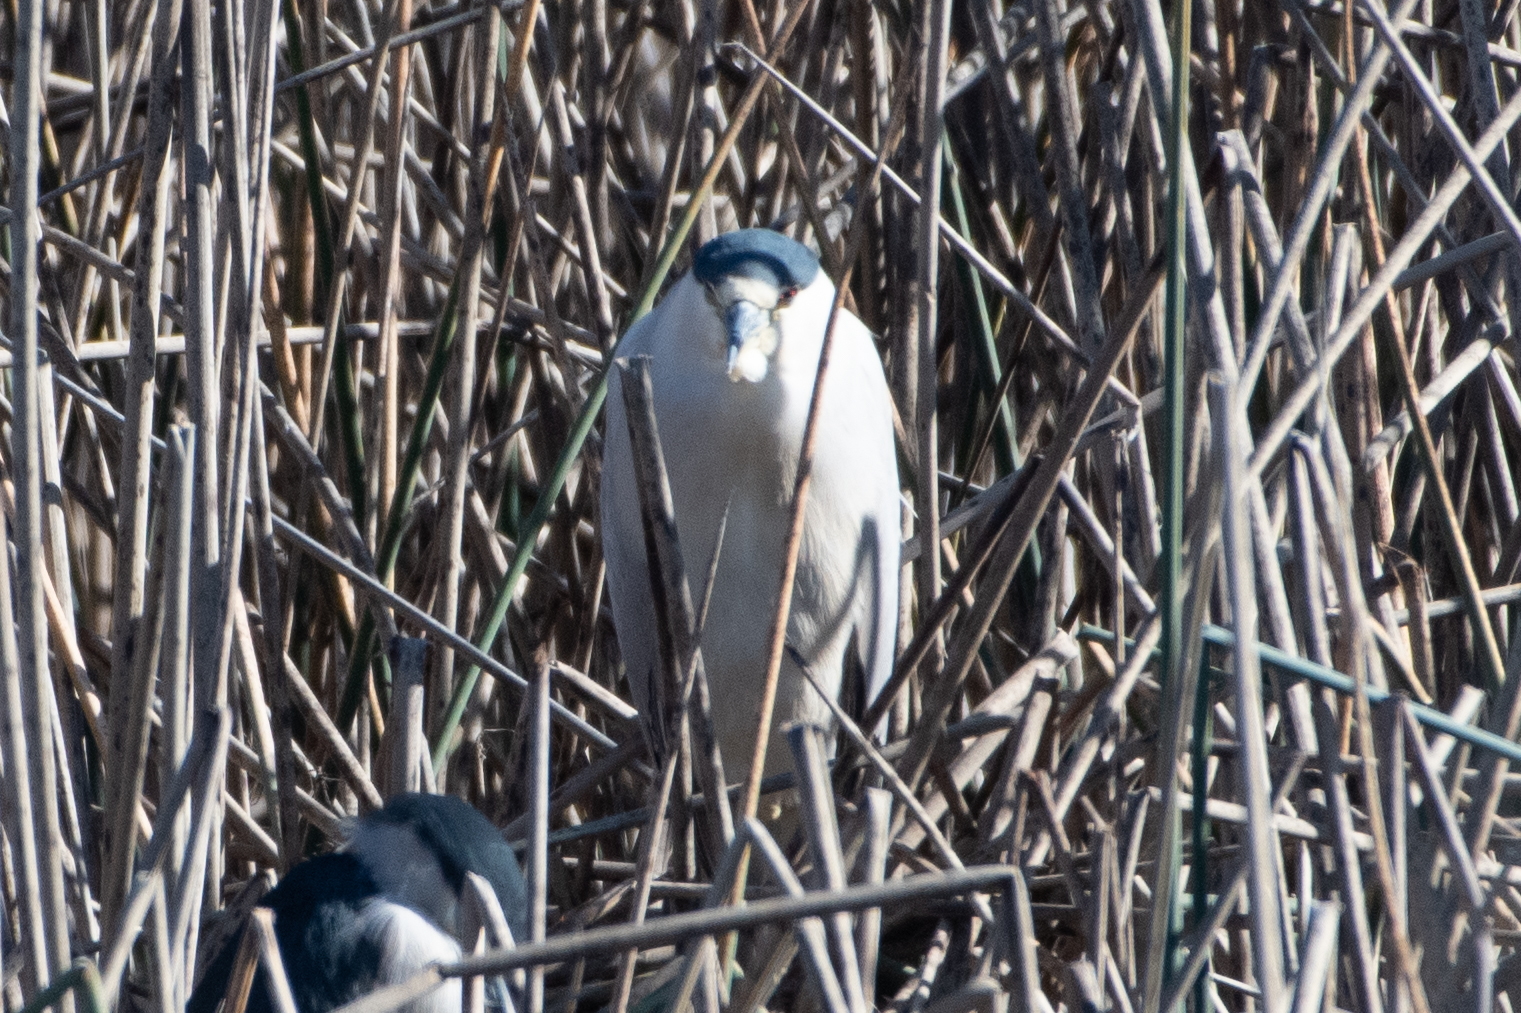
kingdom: Animalia
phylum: Chordata
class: Aves
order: Pelecaniformes
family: Ardeidae
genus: Nycticorax
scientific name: Nycticorax nycticorax
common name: Black-crowned night heron
